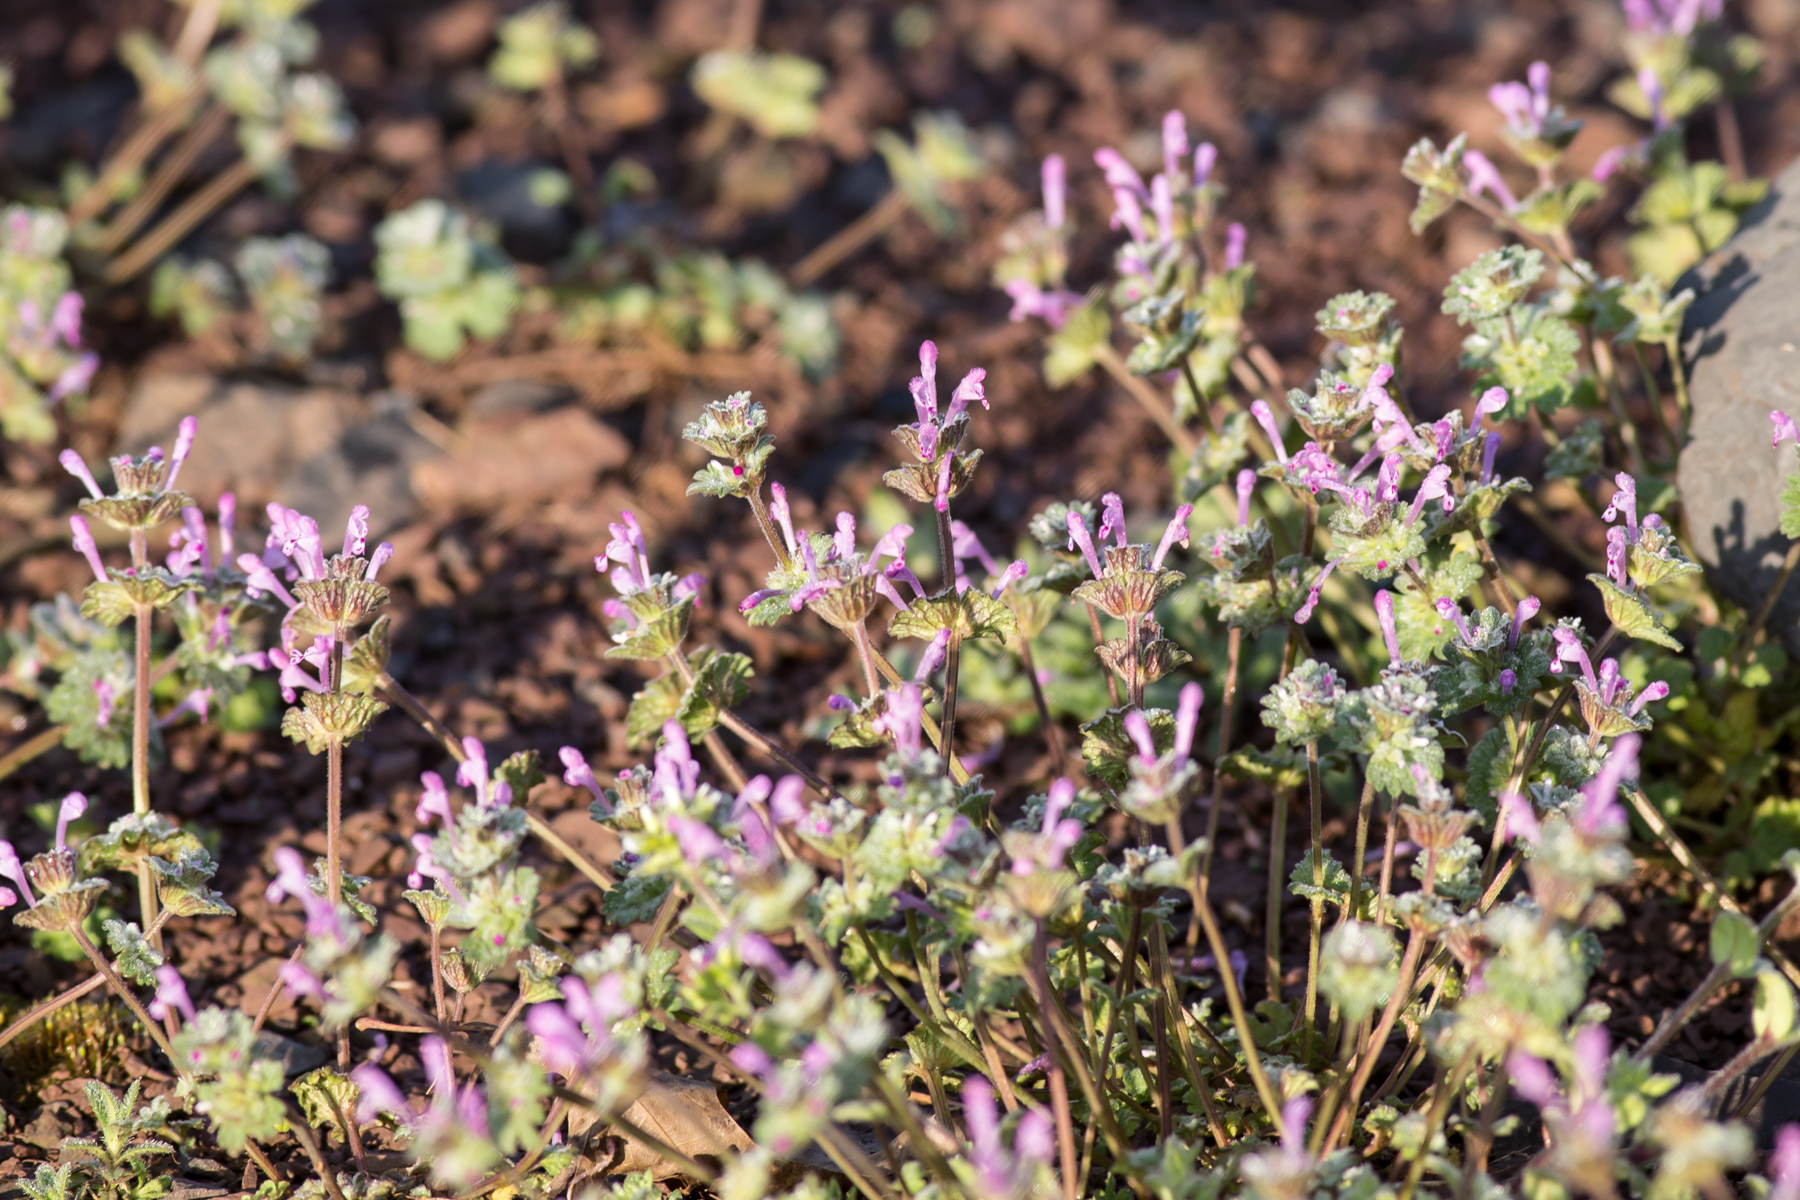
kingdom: Plantae
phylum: Tracheophyta
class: Magnoliopsida
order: Lamiales
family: Lamiaceae
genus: Lamium
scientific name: Lamium amplexicaule
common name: Henbit dead-nettle
